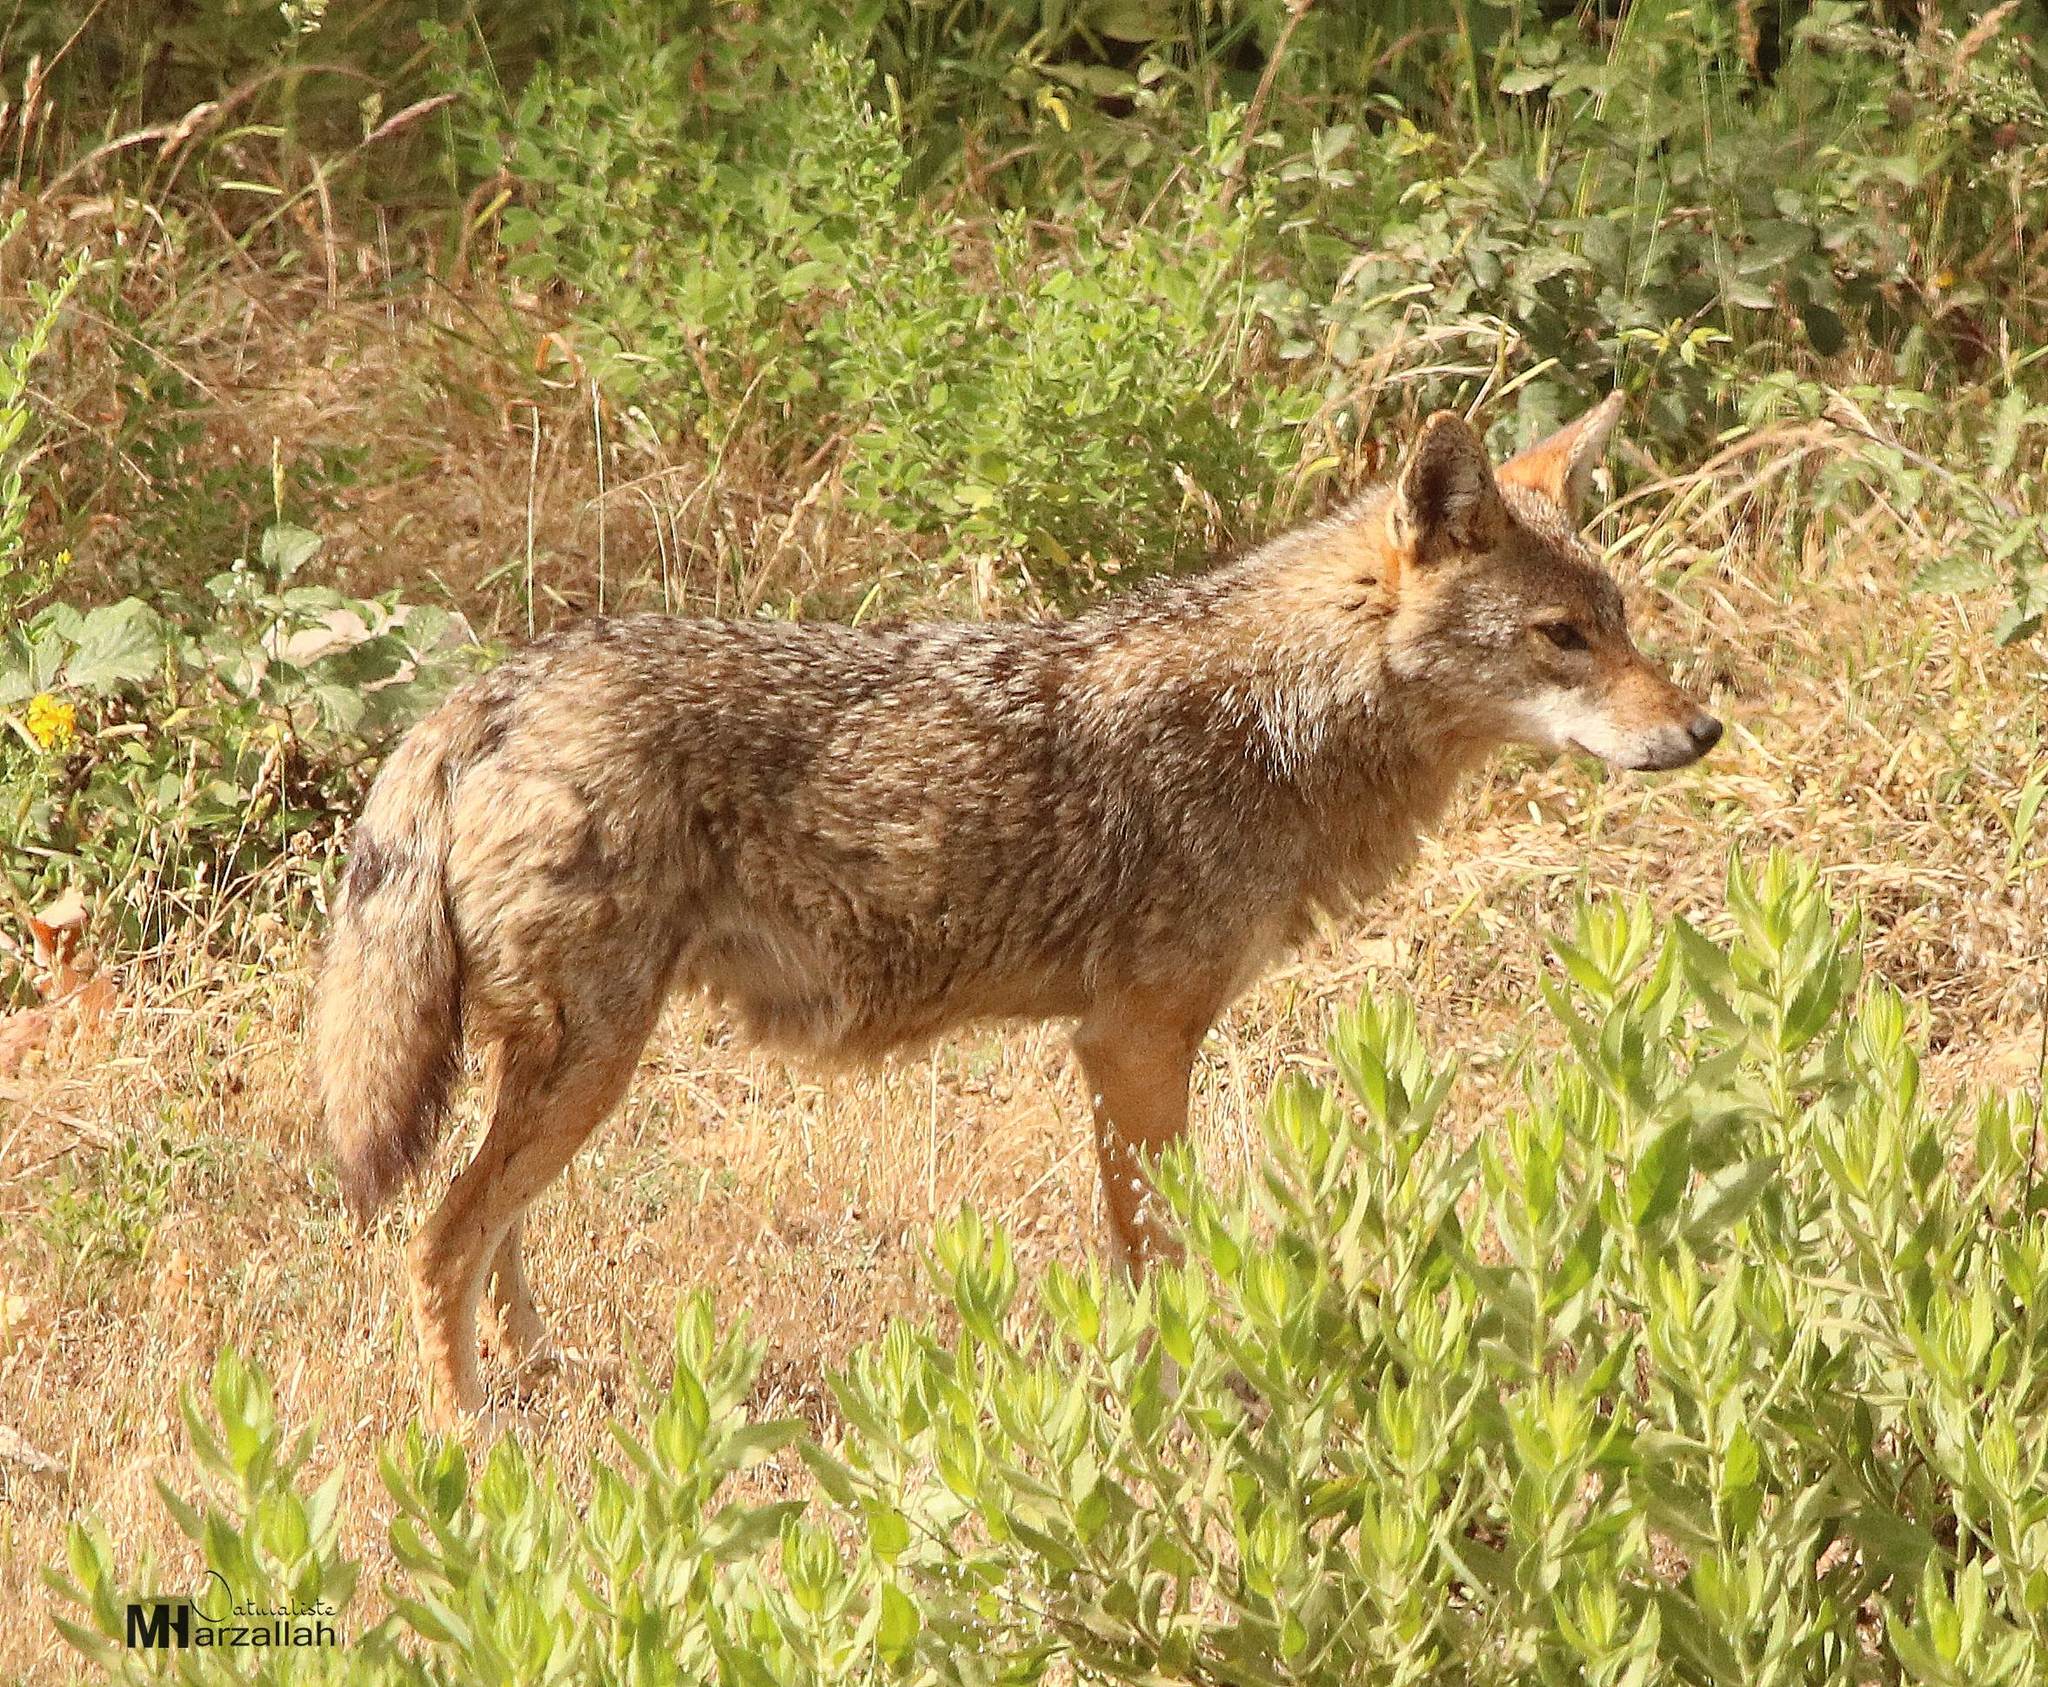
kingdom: Animalia
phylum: Chordata
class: Mammalia
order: Carnivora
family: Canidae
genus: Canis
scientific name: Canis lupaster
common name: African golden wolf
